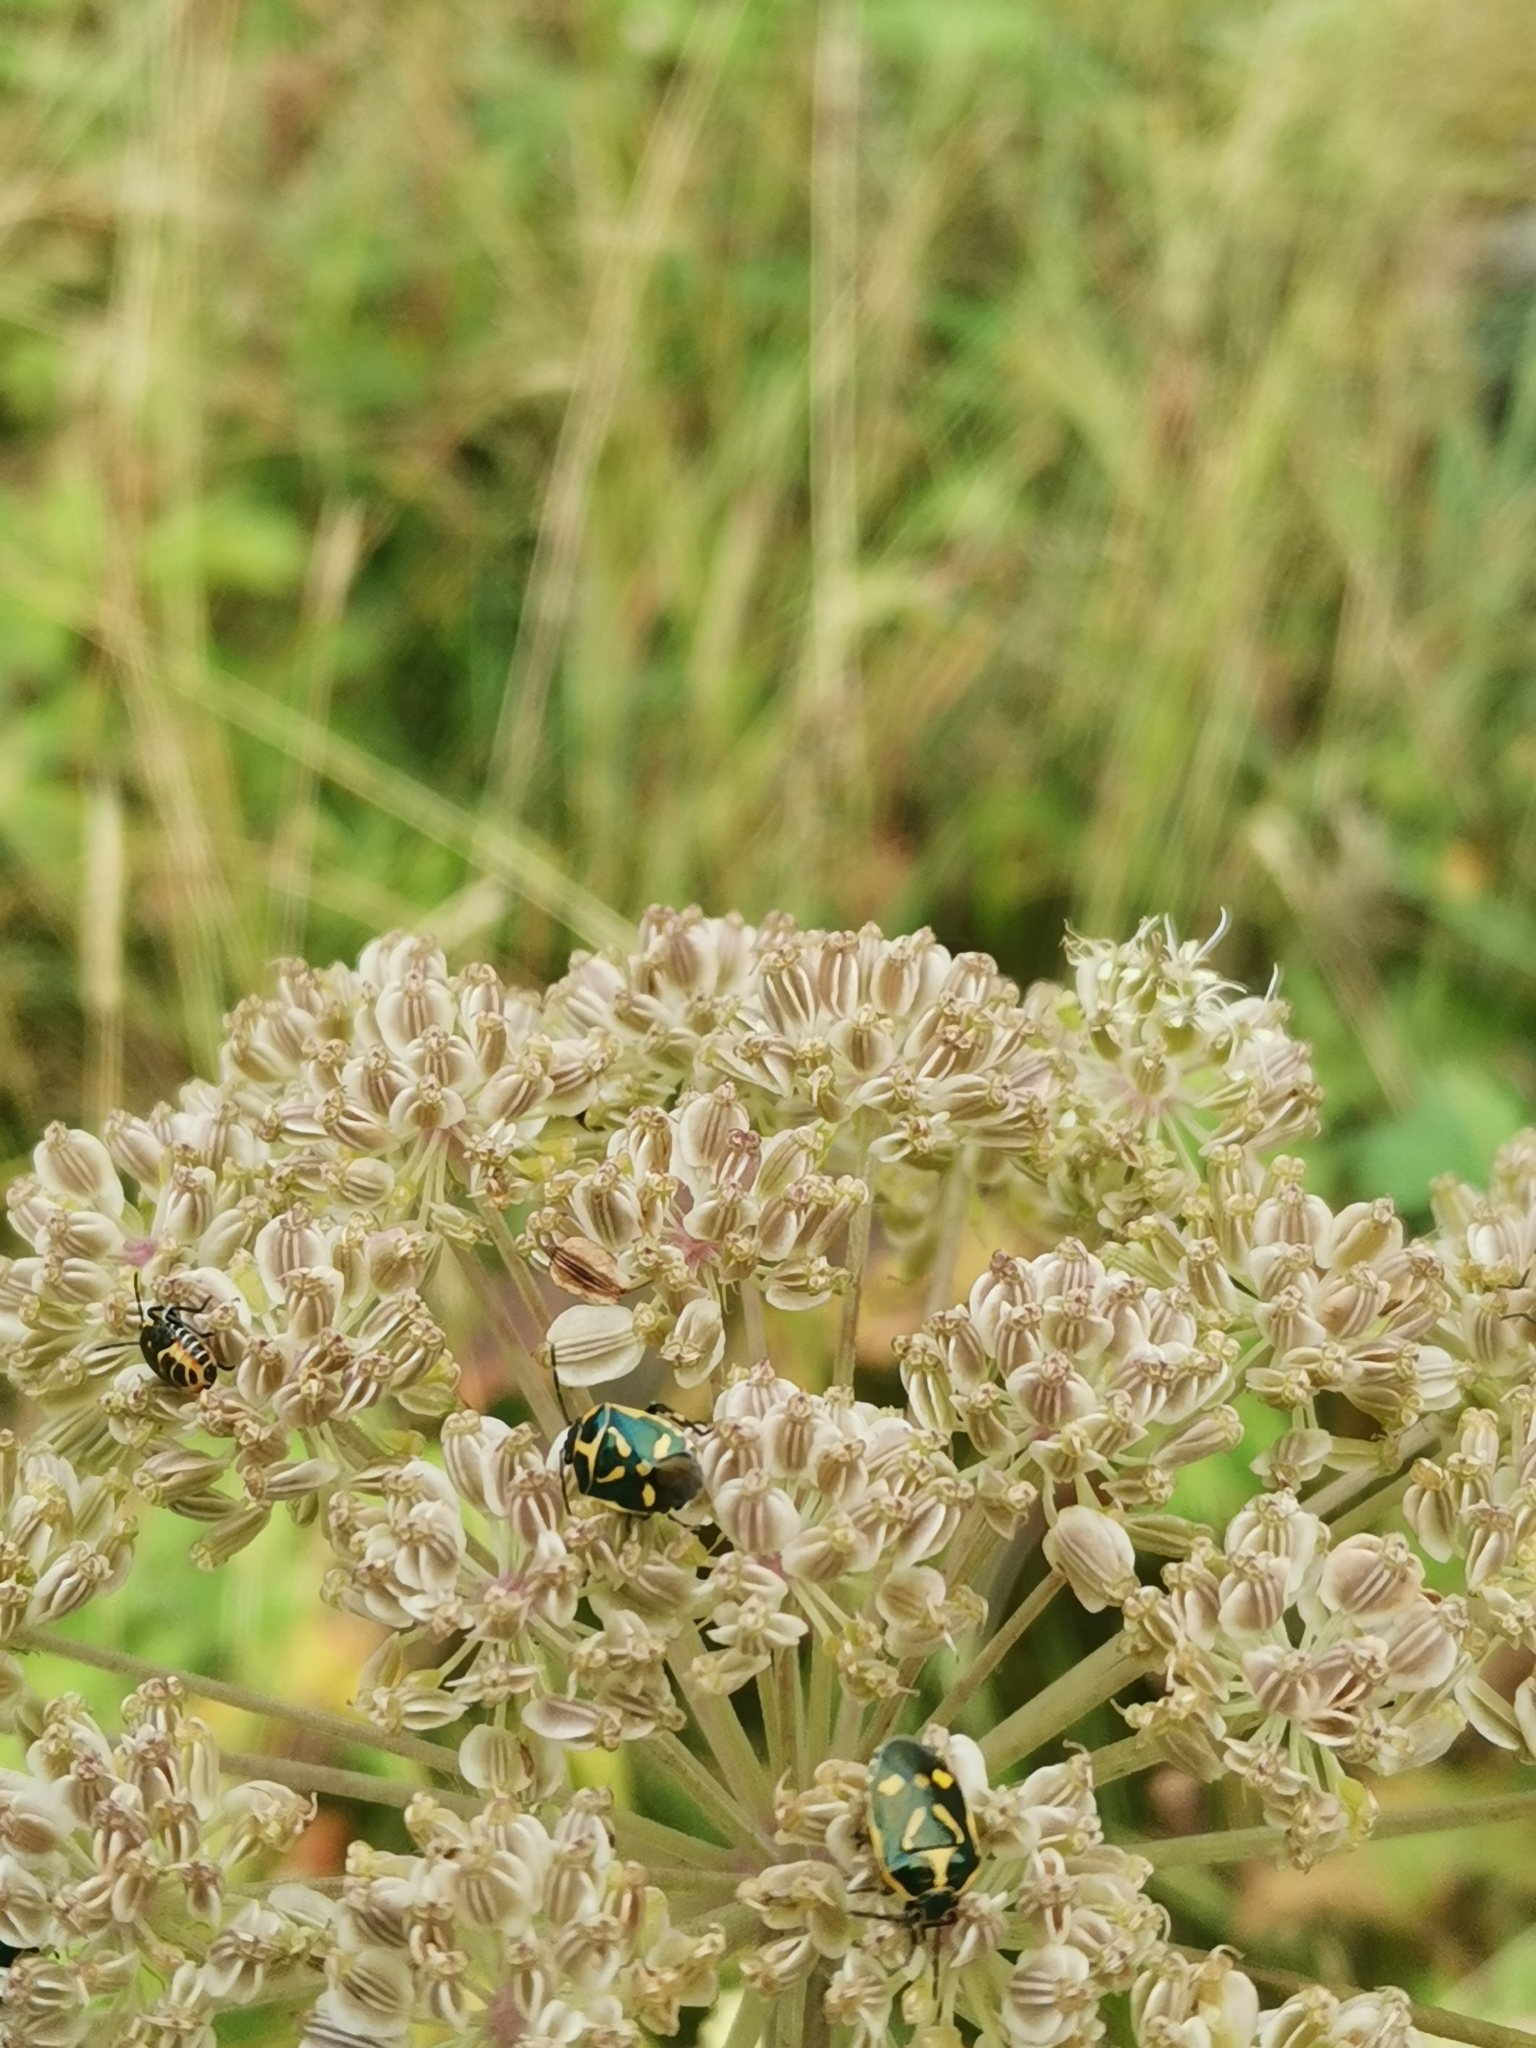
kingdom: Animalia
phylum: Arthropoda
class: Insecta
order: Hemiptera
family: Pentatomidae
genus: Eurydema
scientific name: Eurydema oleracea
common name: Cabbage bug
